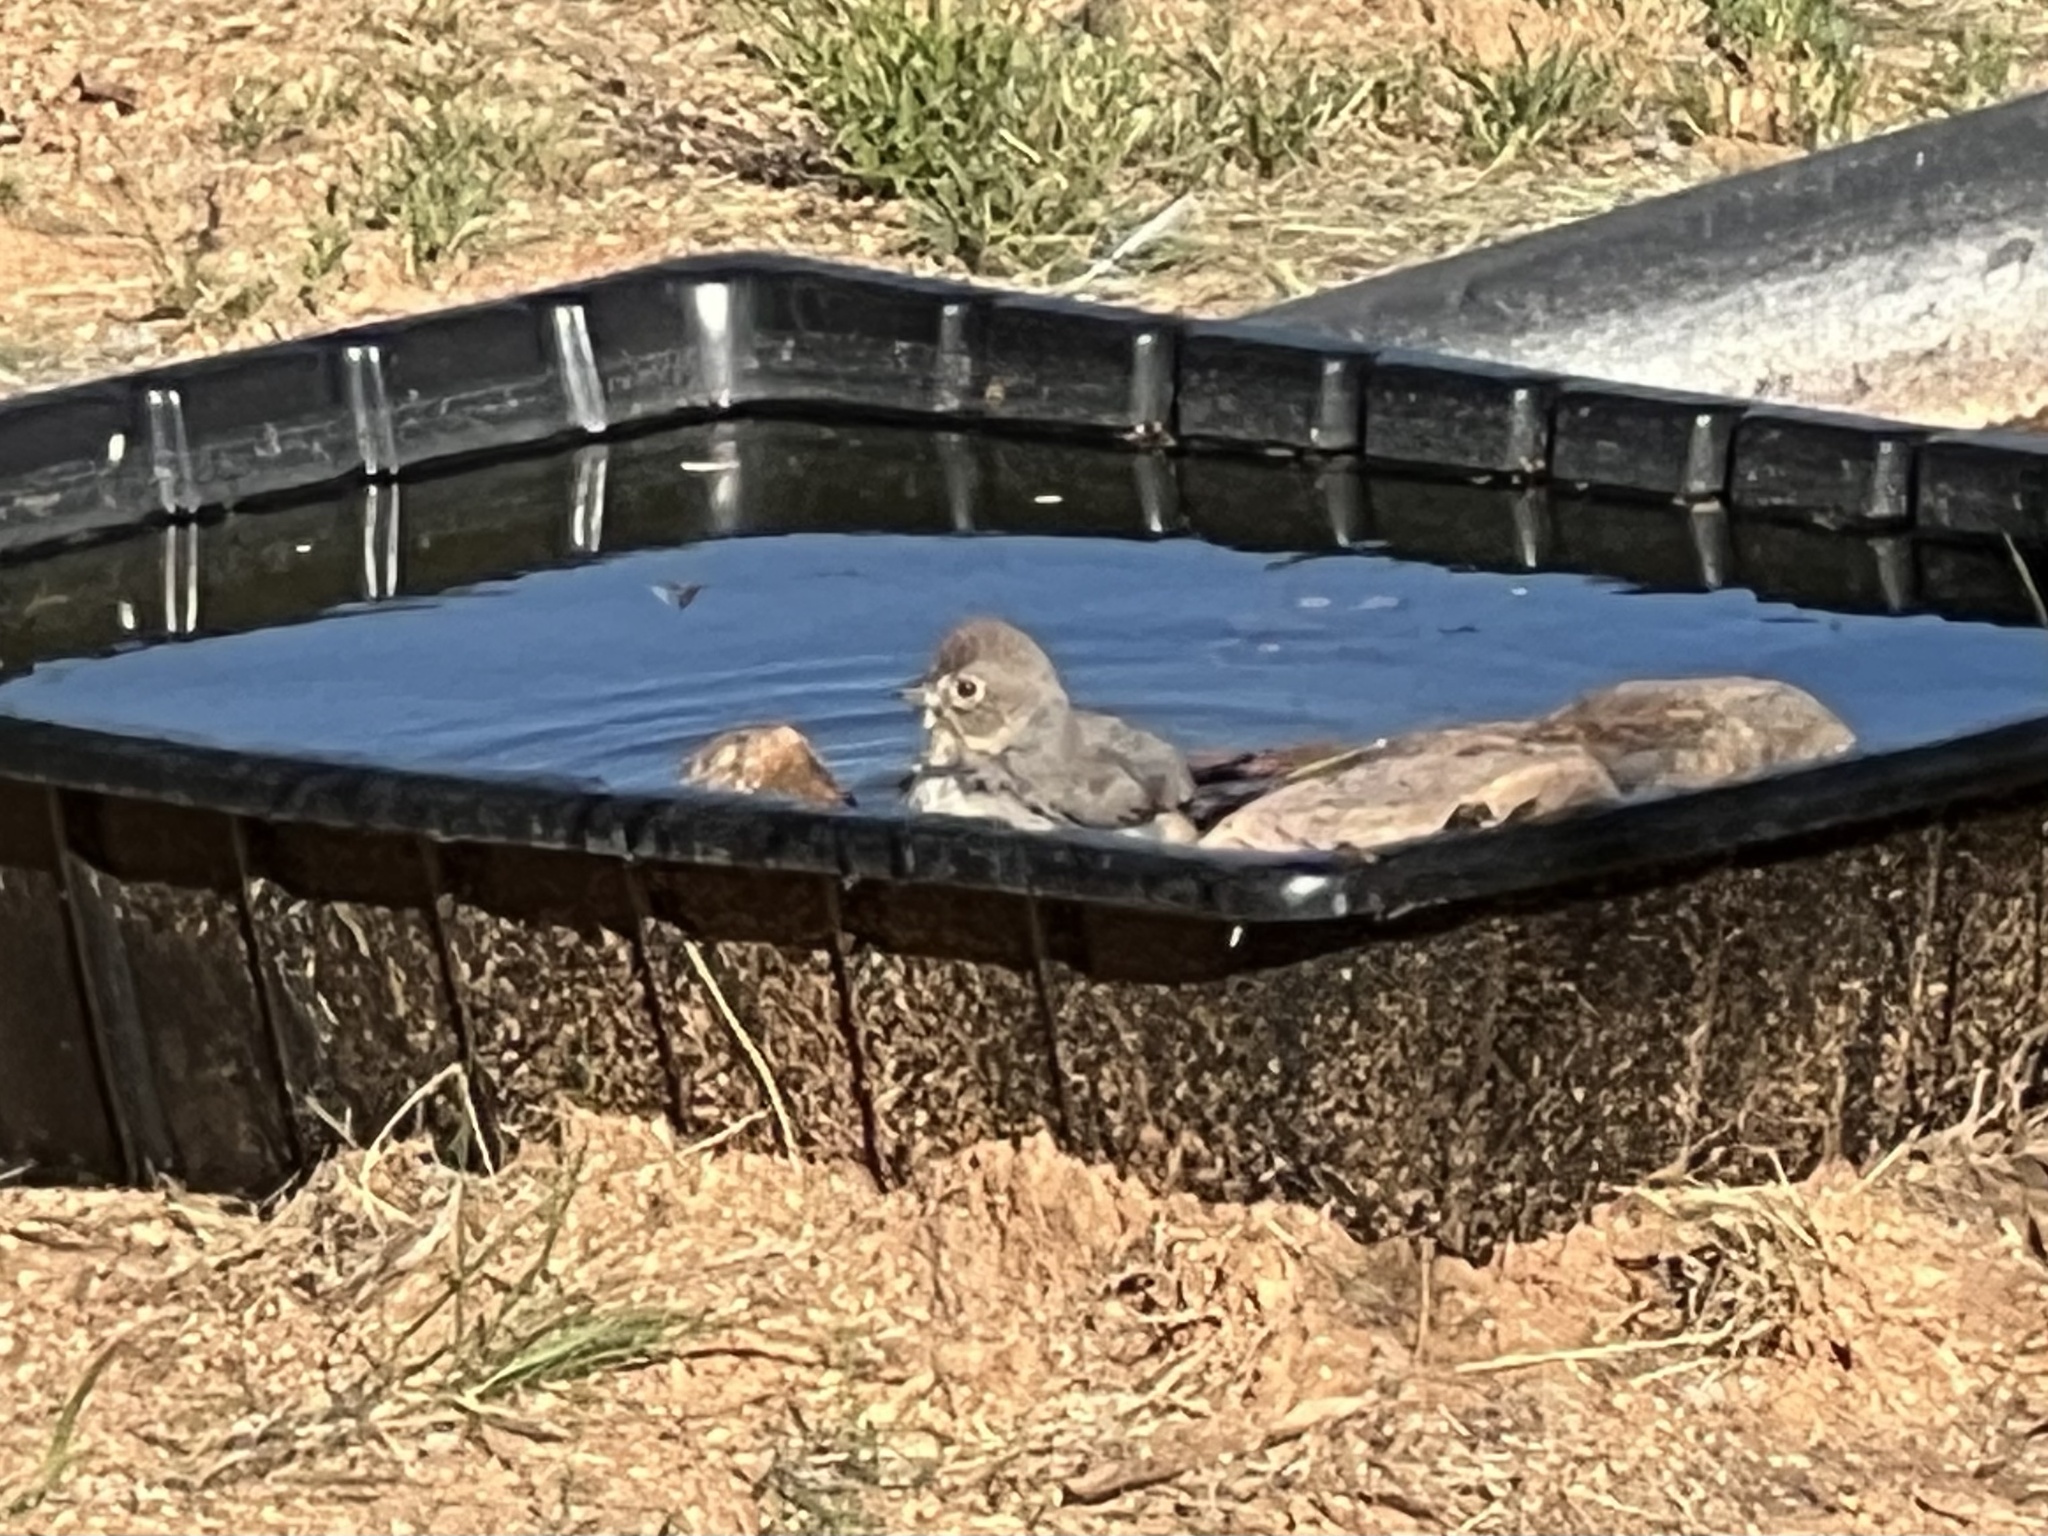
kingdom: Animalia
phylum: Chordata
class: Aves
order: Passeriformes
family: Passerellidae
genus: Melozone
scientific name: Melozone fusca
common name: Canyon towhee
